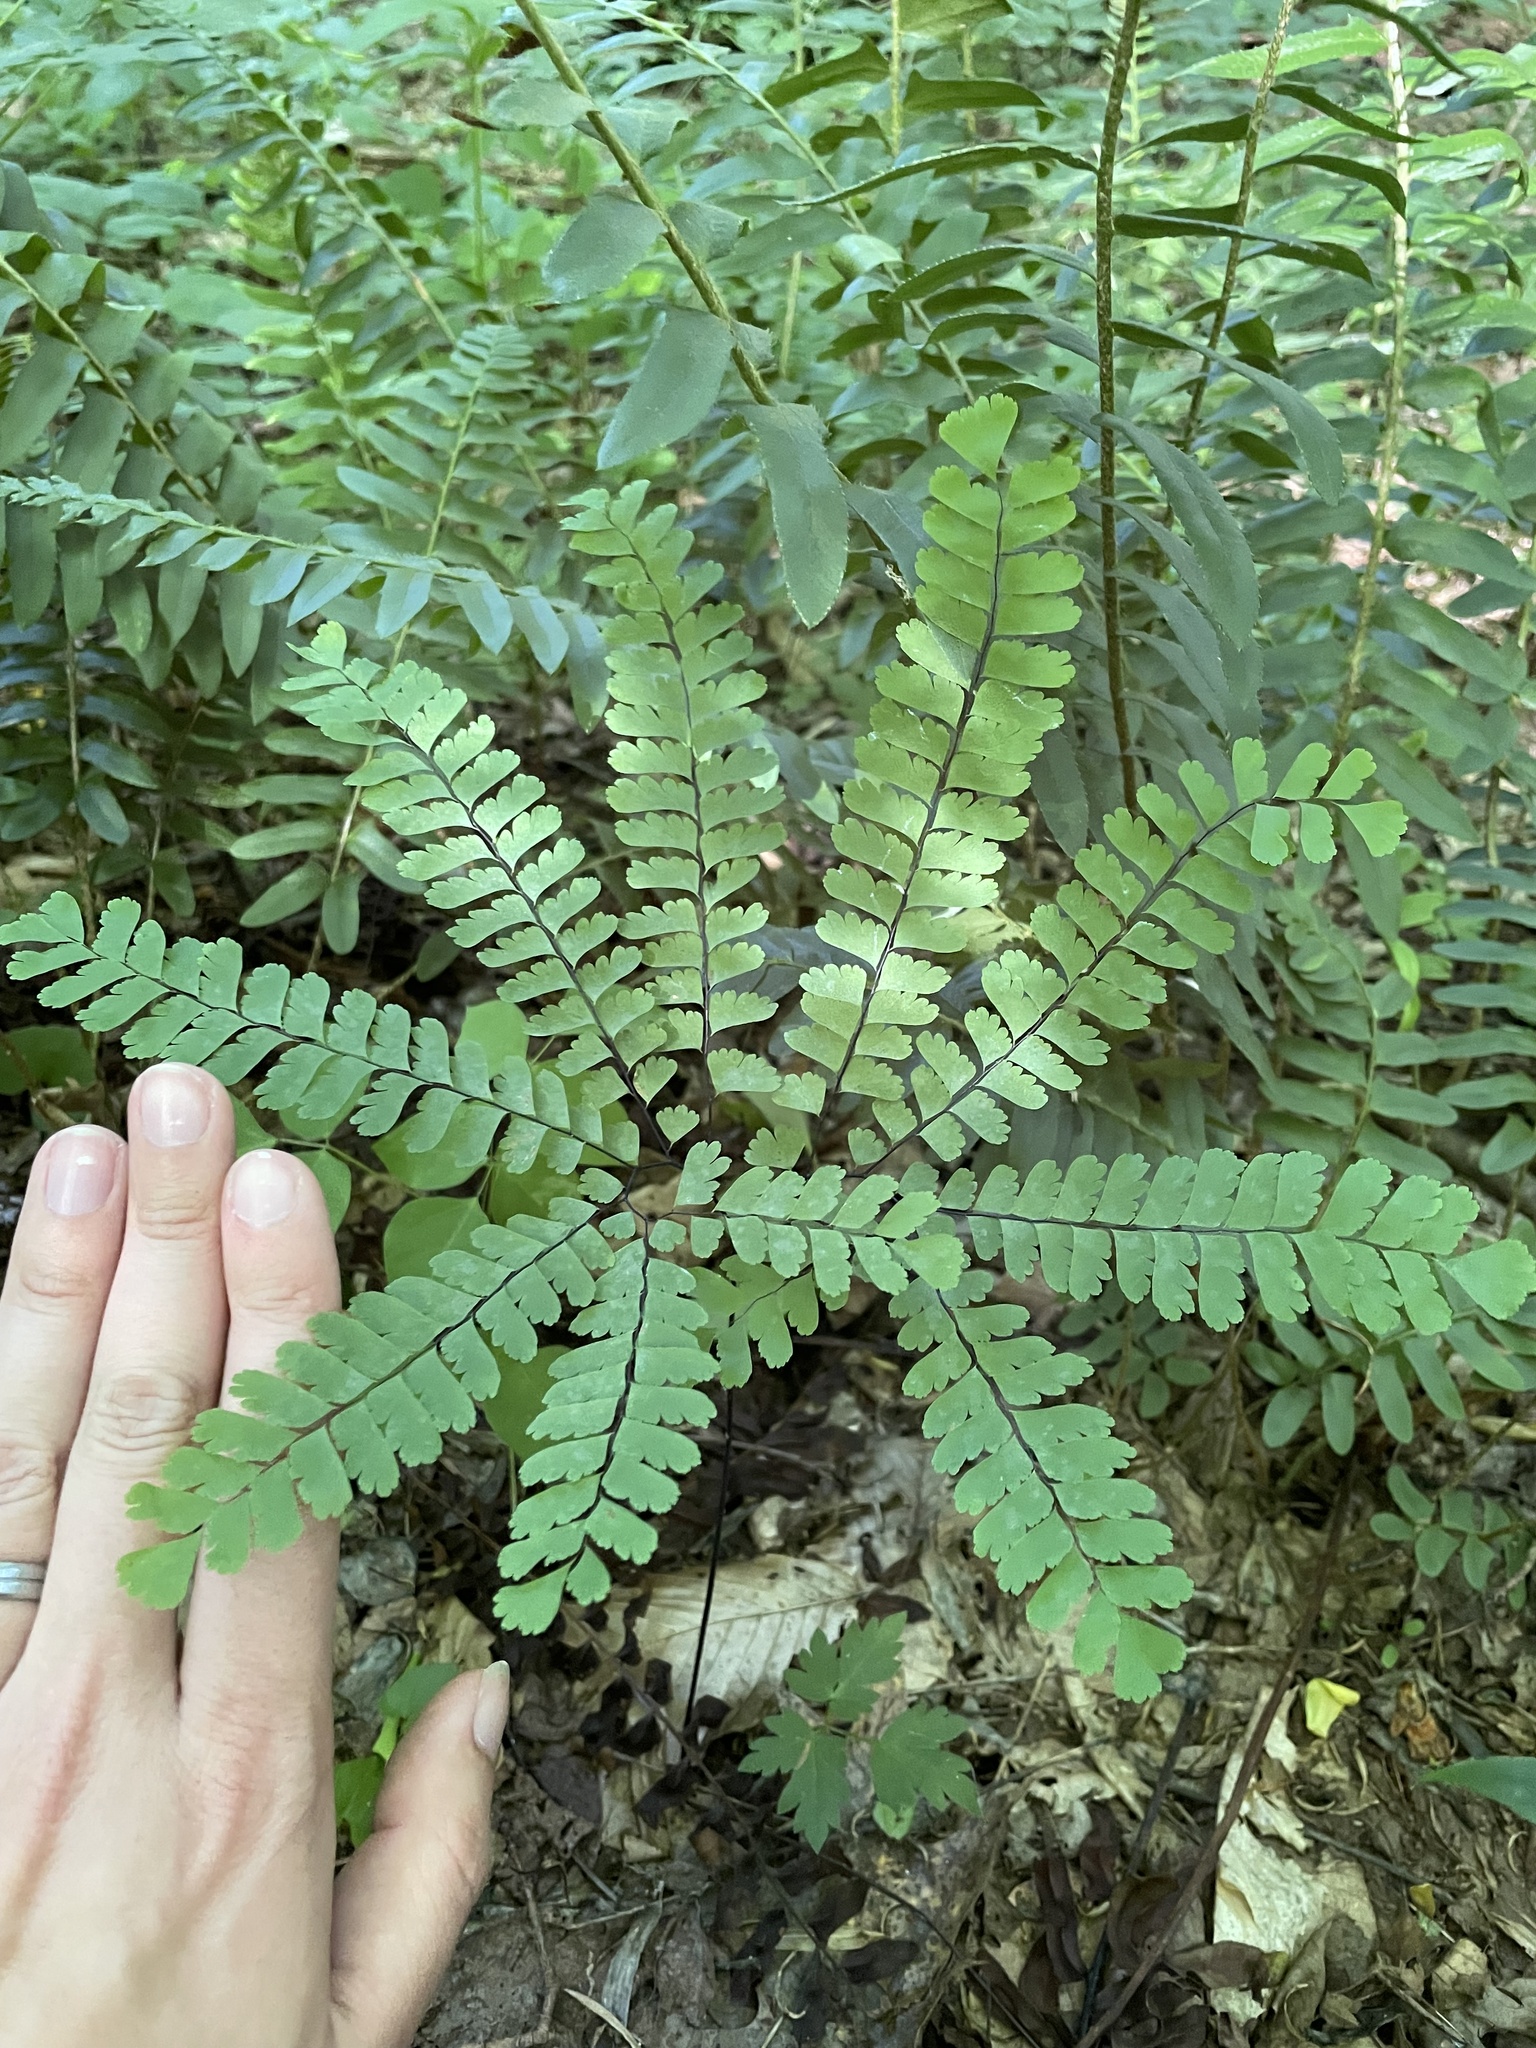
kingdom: Plantae
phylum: Tracheophyta
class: Polypodiopsida
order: Polypodiales
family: Pteridaceae
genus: Adiantum
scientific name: Adiantum pedatum
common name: Five-finger fern
